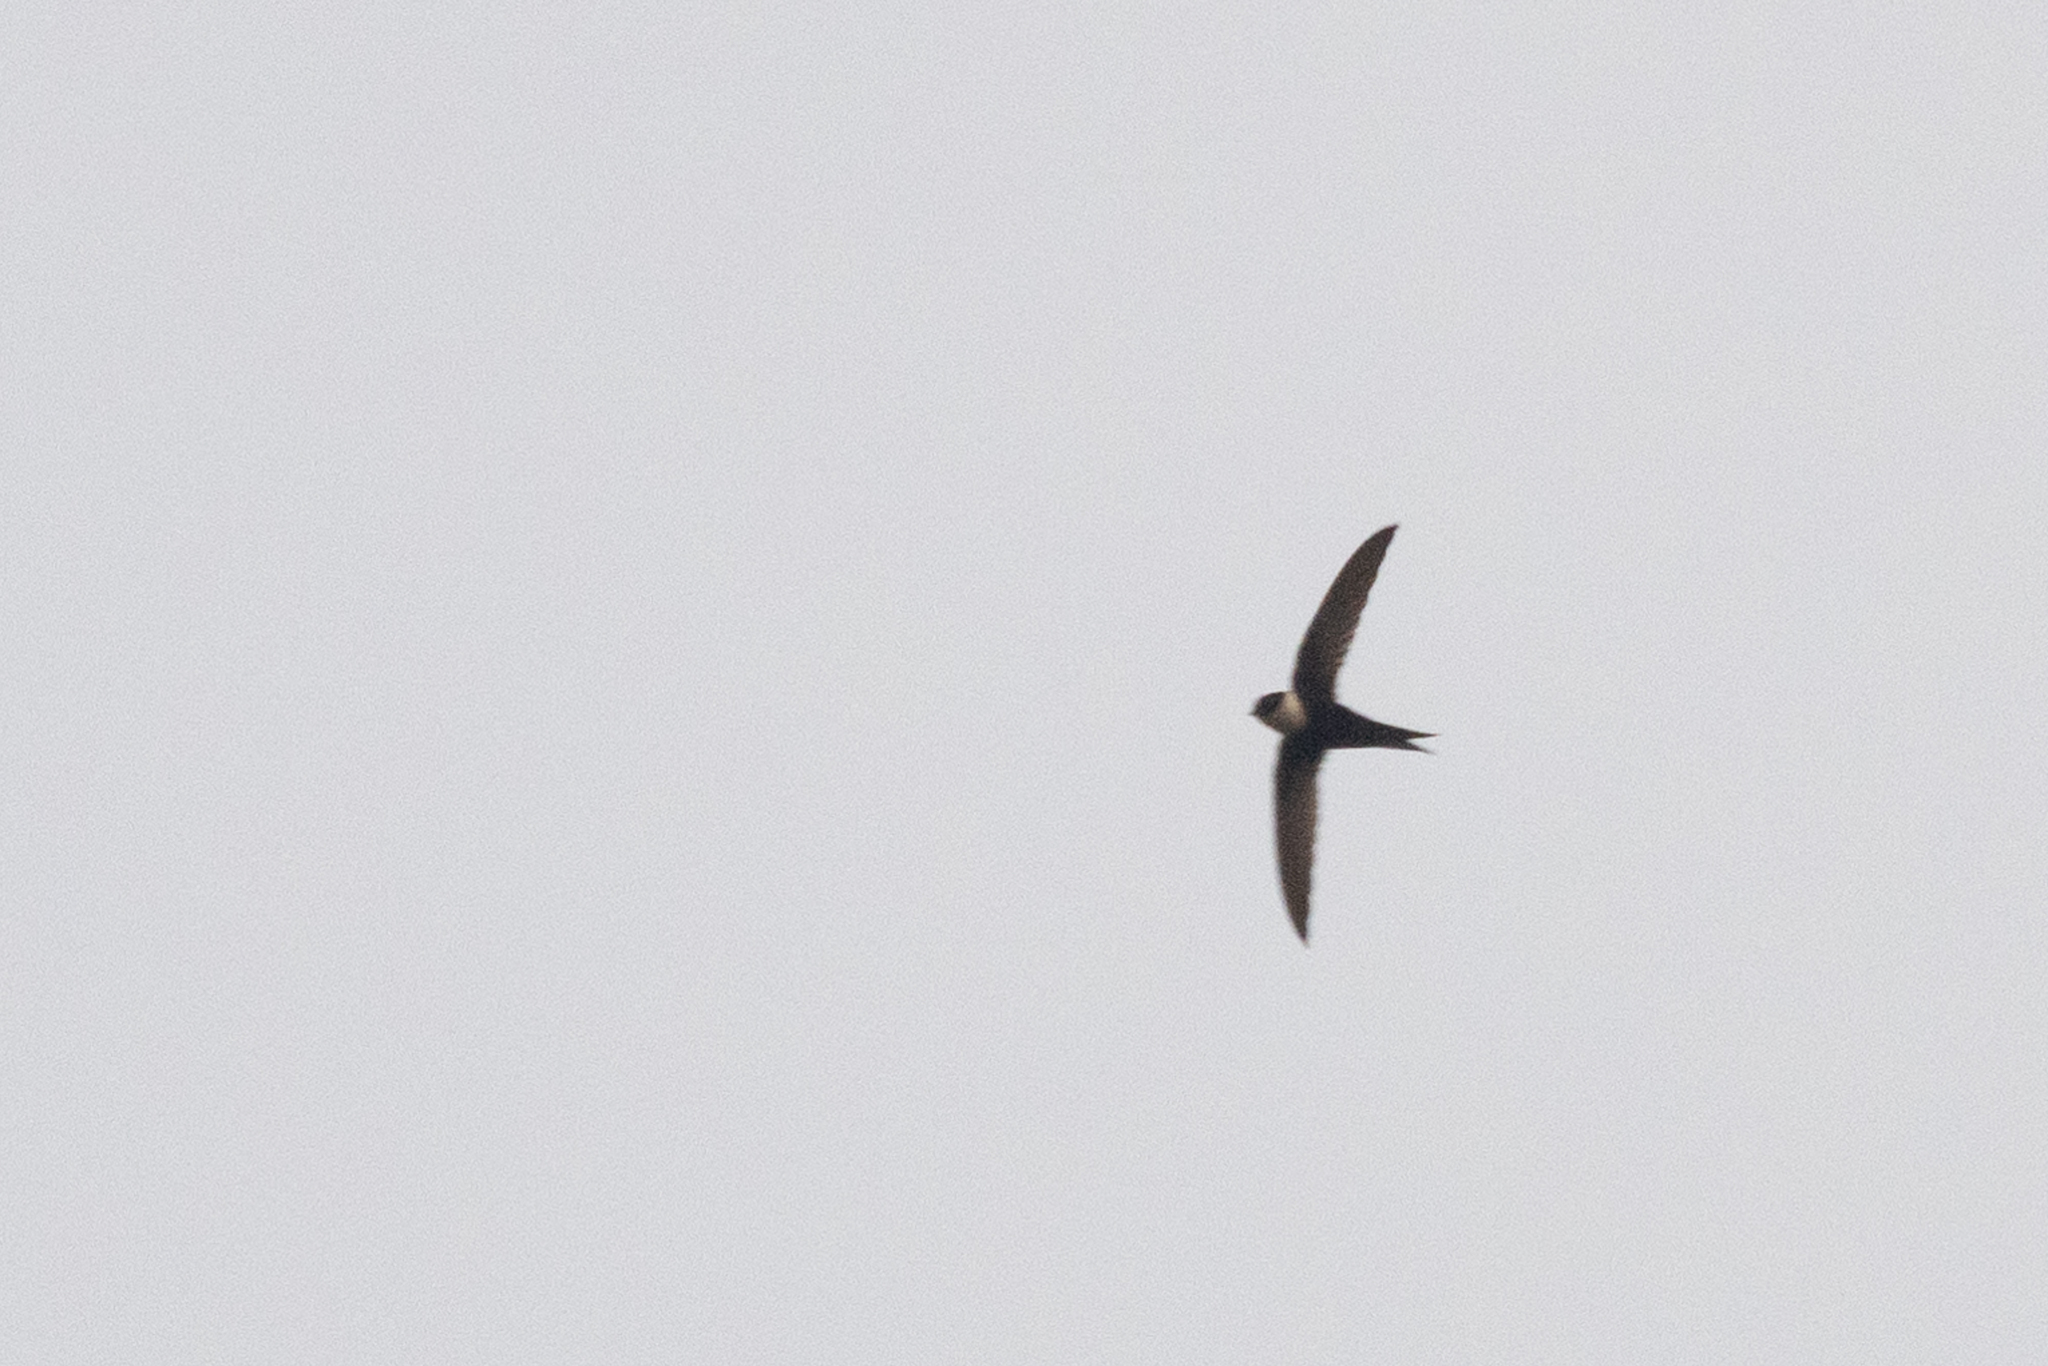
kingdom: Animalia
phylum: Chordata
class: Aves
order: Apodiformes
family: Apodidae
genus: Panyptila
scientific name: Panyptila cayennensis
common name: Lesser swallow-tailed swift
